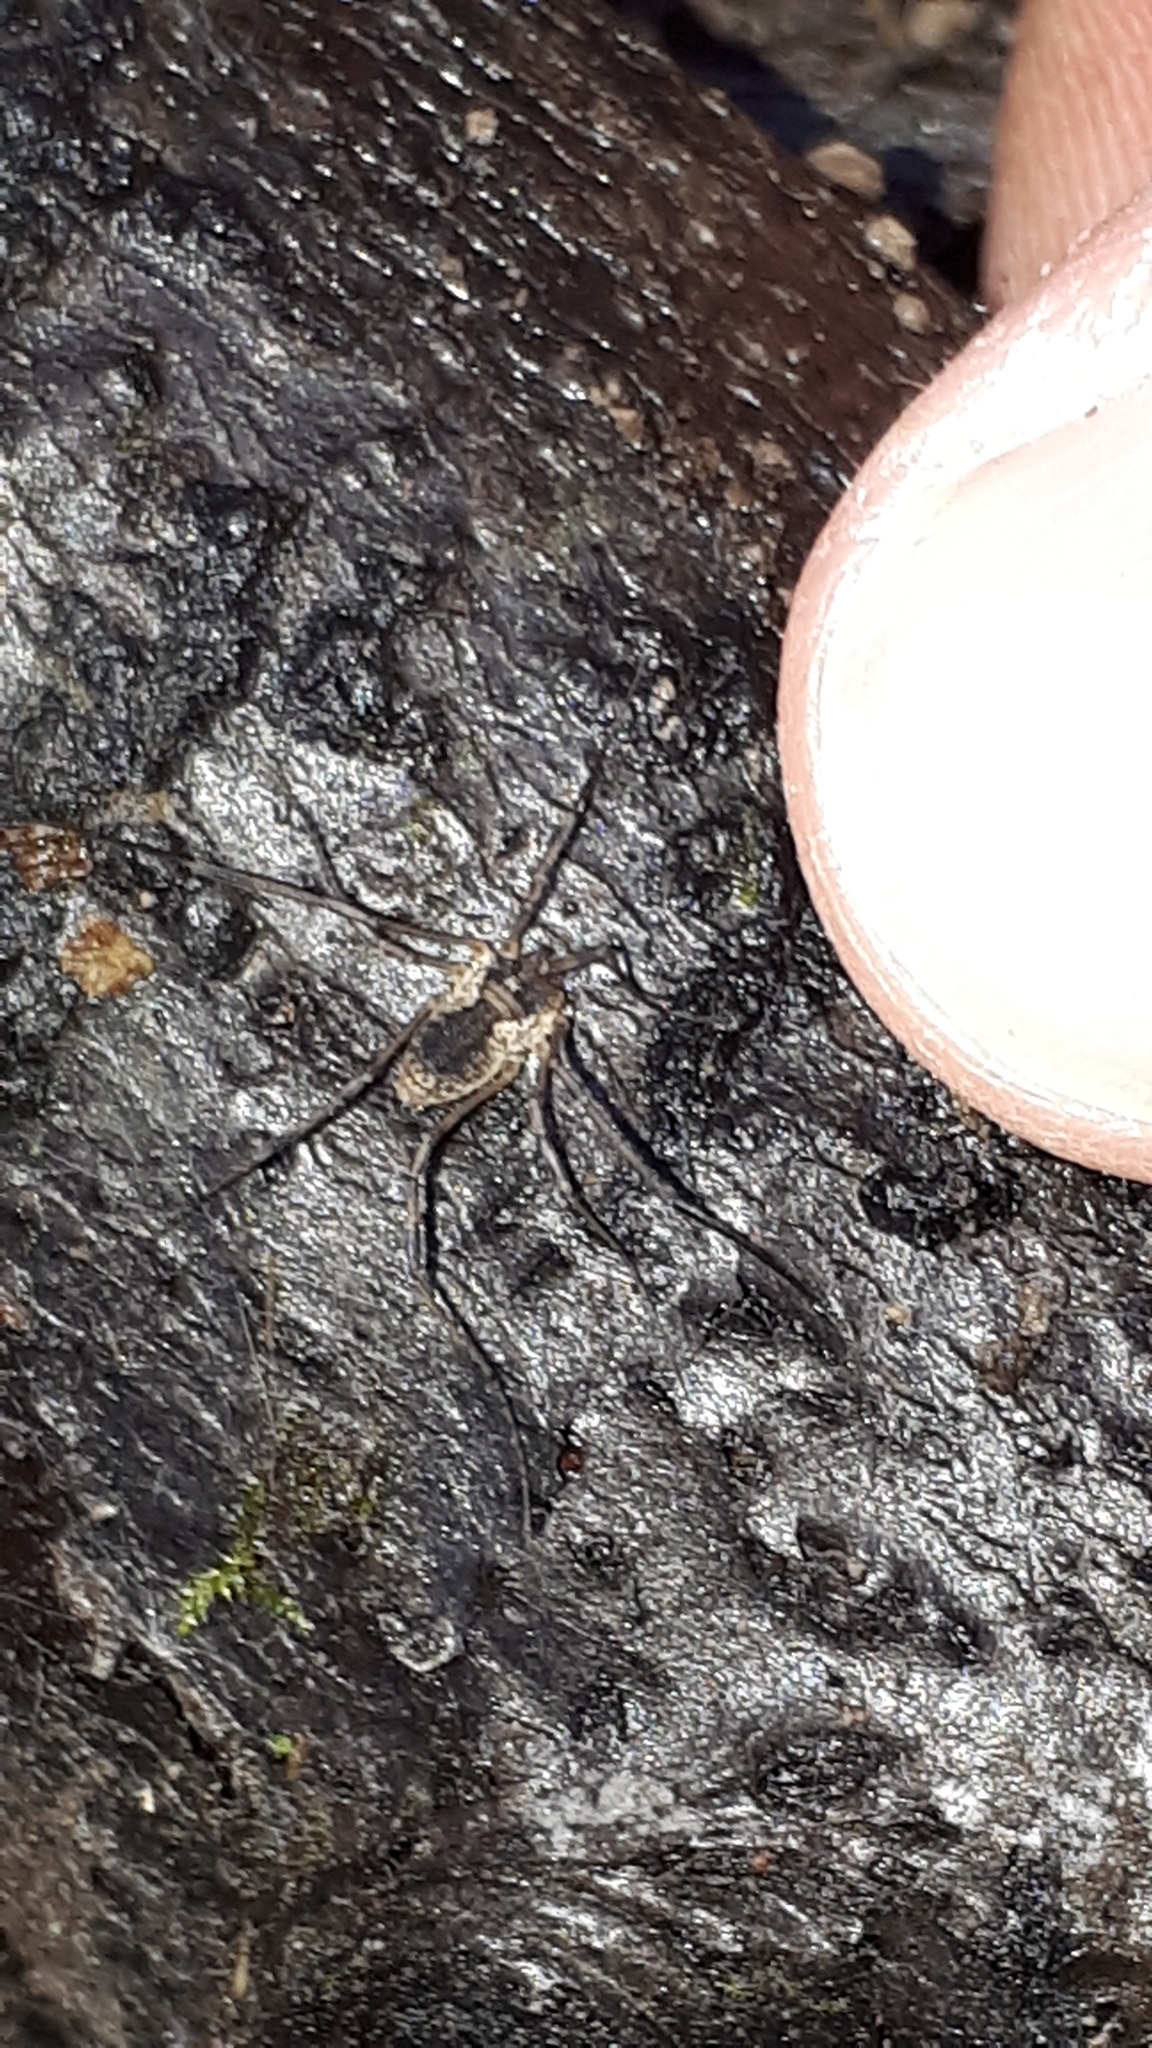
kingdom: Animalia
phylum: Arthropoda
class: Arachnida
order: Opiliones
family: Phalangiidae
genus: Oligolophus
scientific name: Oligolophus tridens
